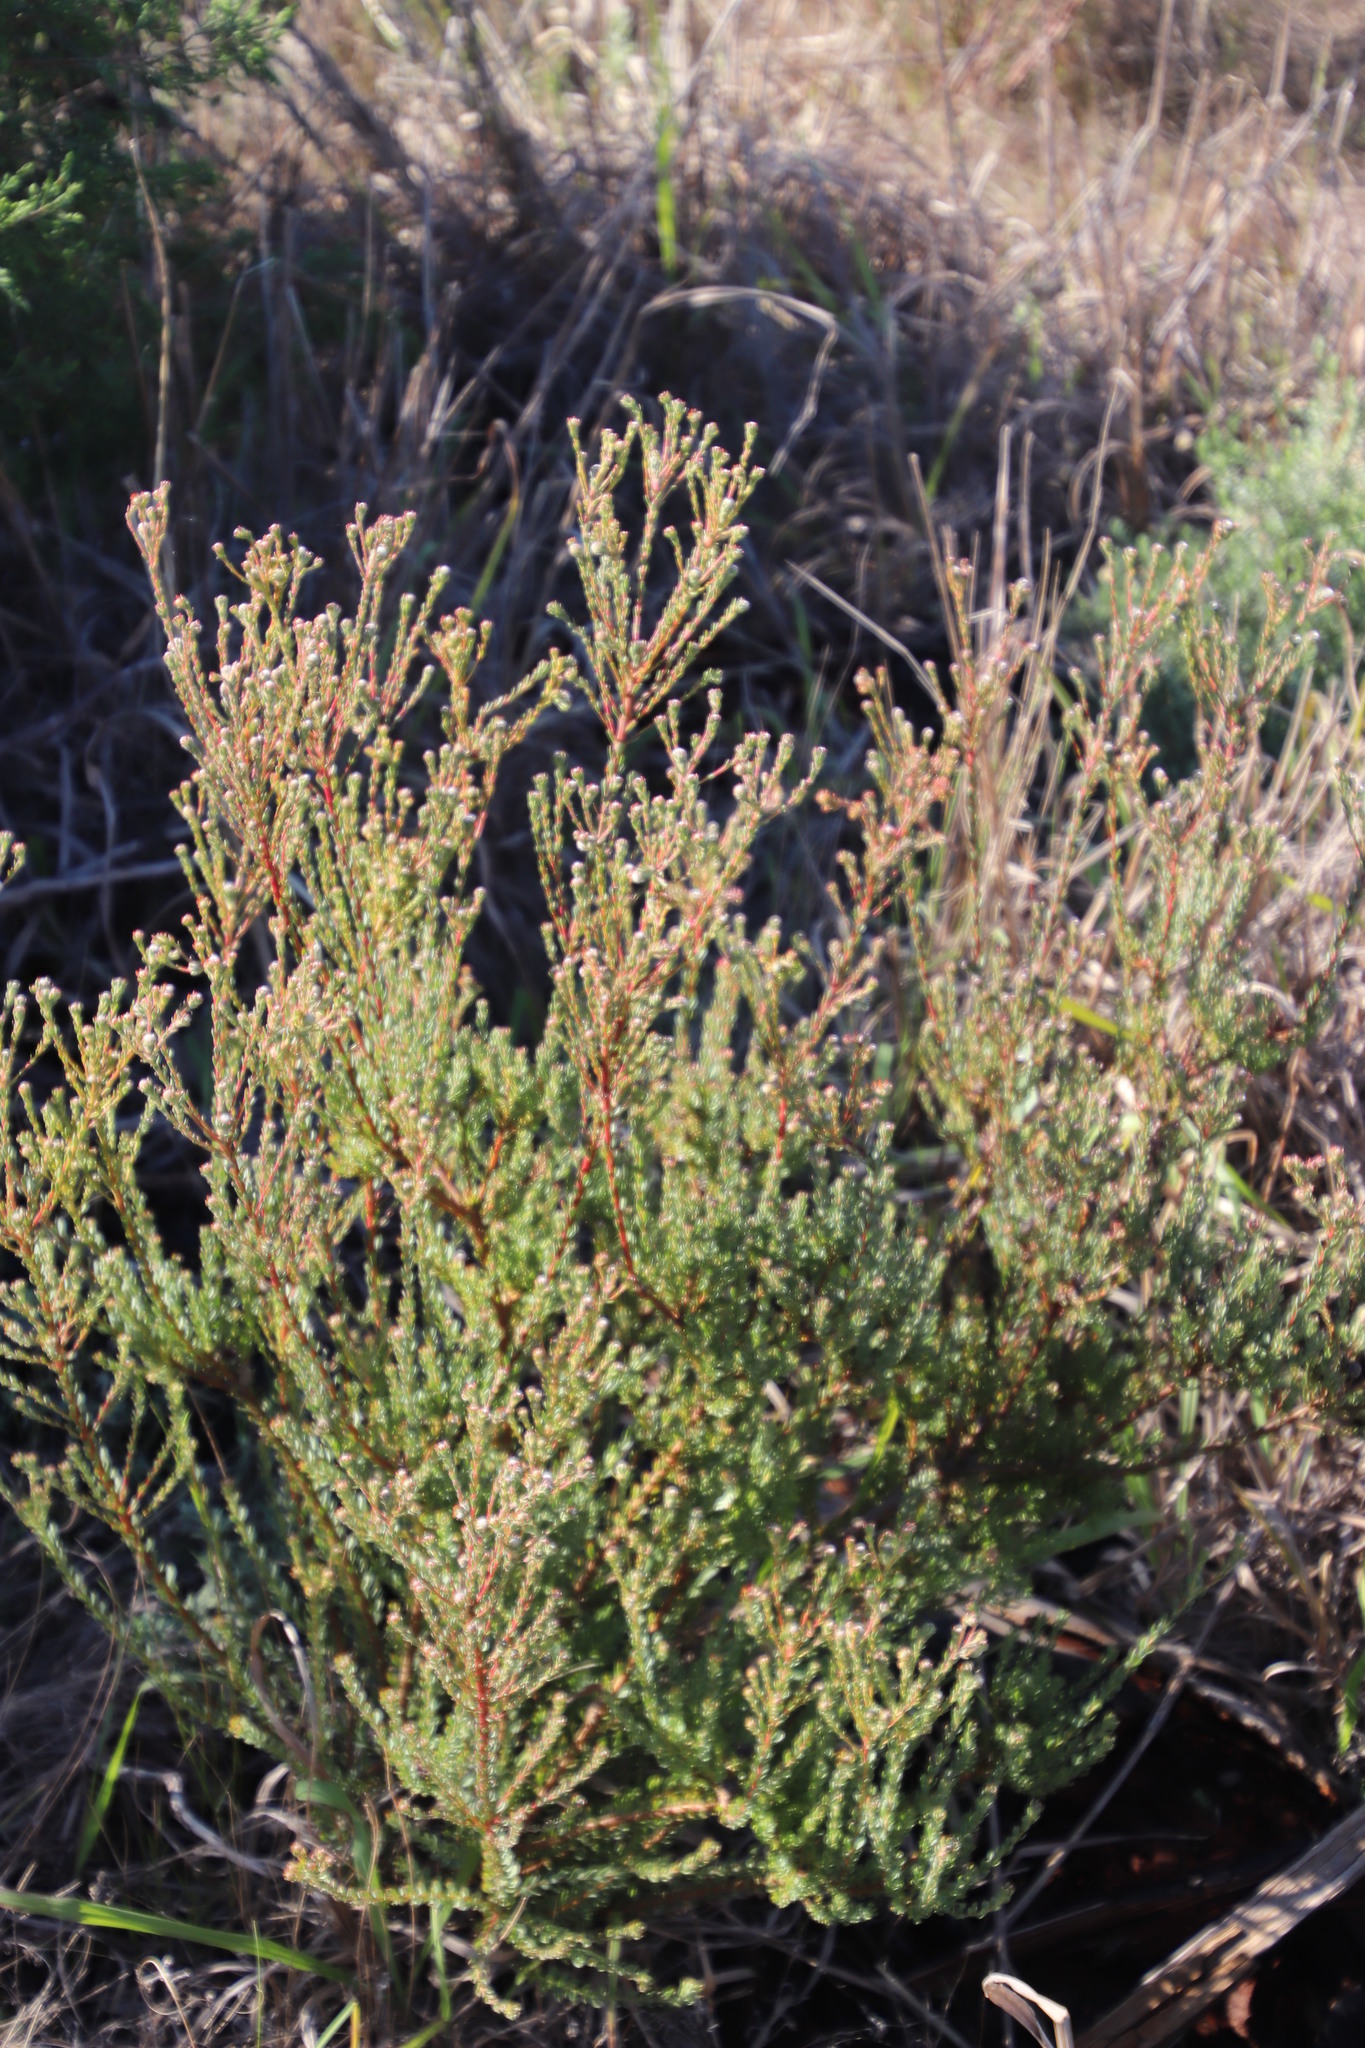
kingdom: Plantae
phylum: Tracheophyta
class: Magnoliopsida
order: Proteales
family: Proteaceae
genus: Leucadendron
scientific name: Leucadendron levisanus
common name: Cape flats conebush
